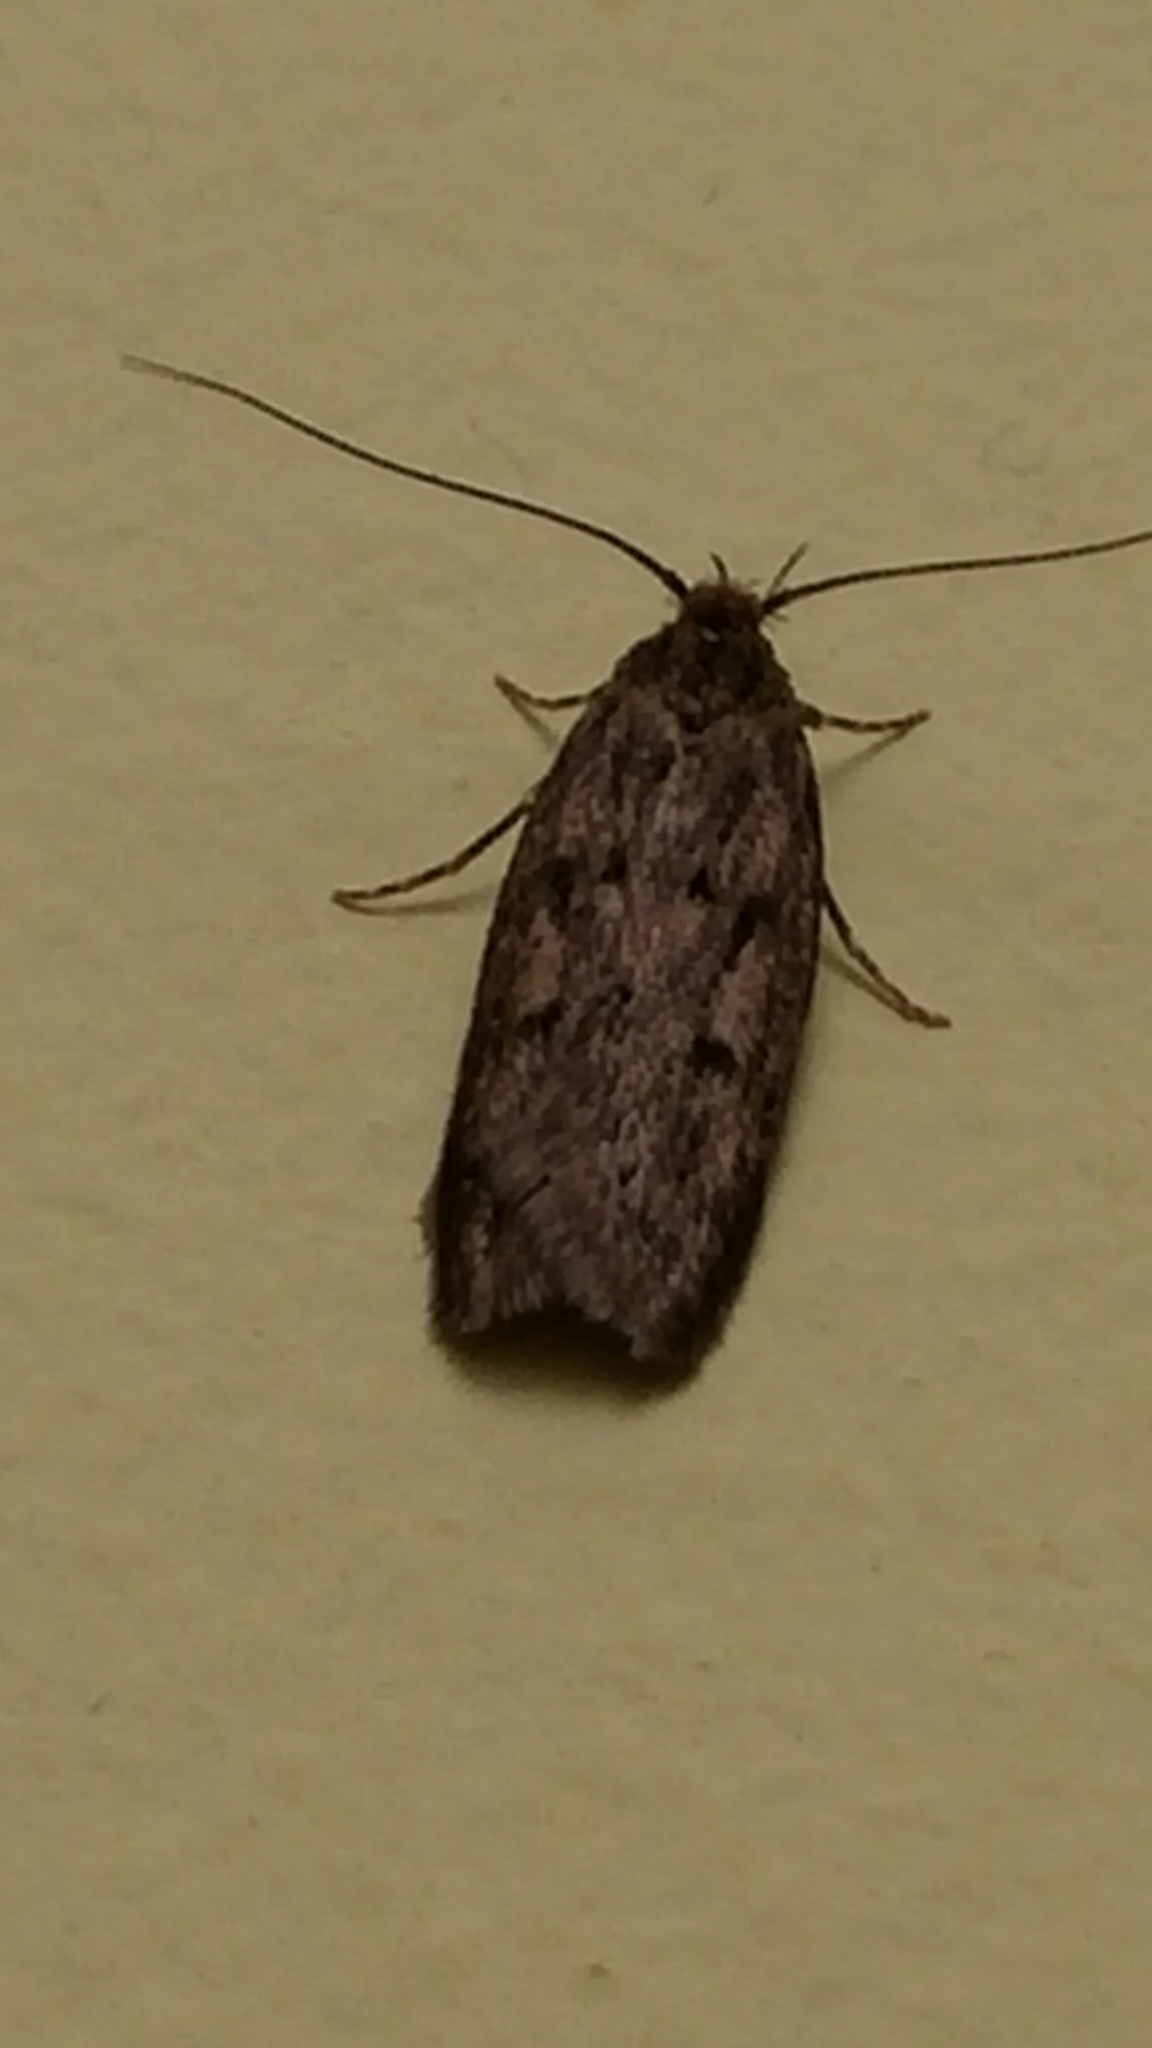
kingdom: Animalia
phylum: Arthropoda
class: Insecta
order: Lepidoptera
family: Oecophoridae
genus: Hofmannophila
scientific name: Hofmannophila pseudospretella
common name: Brown house moth
